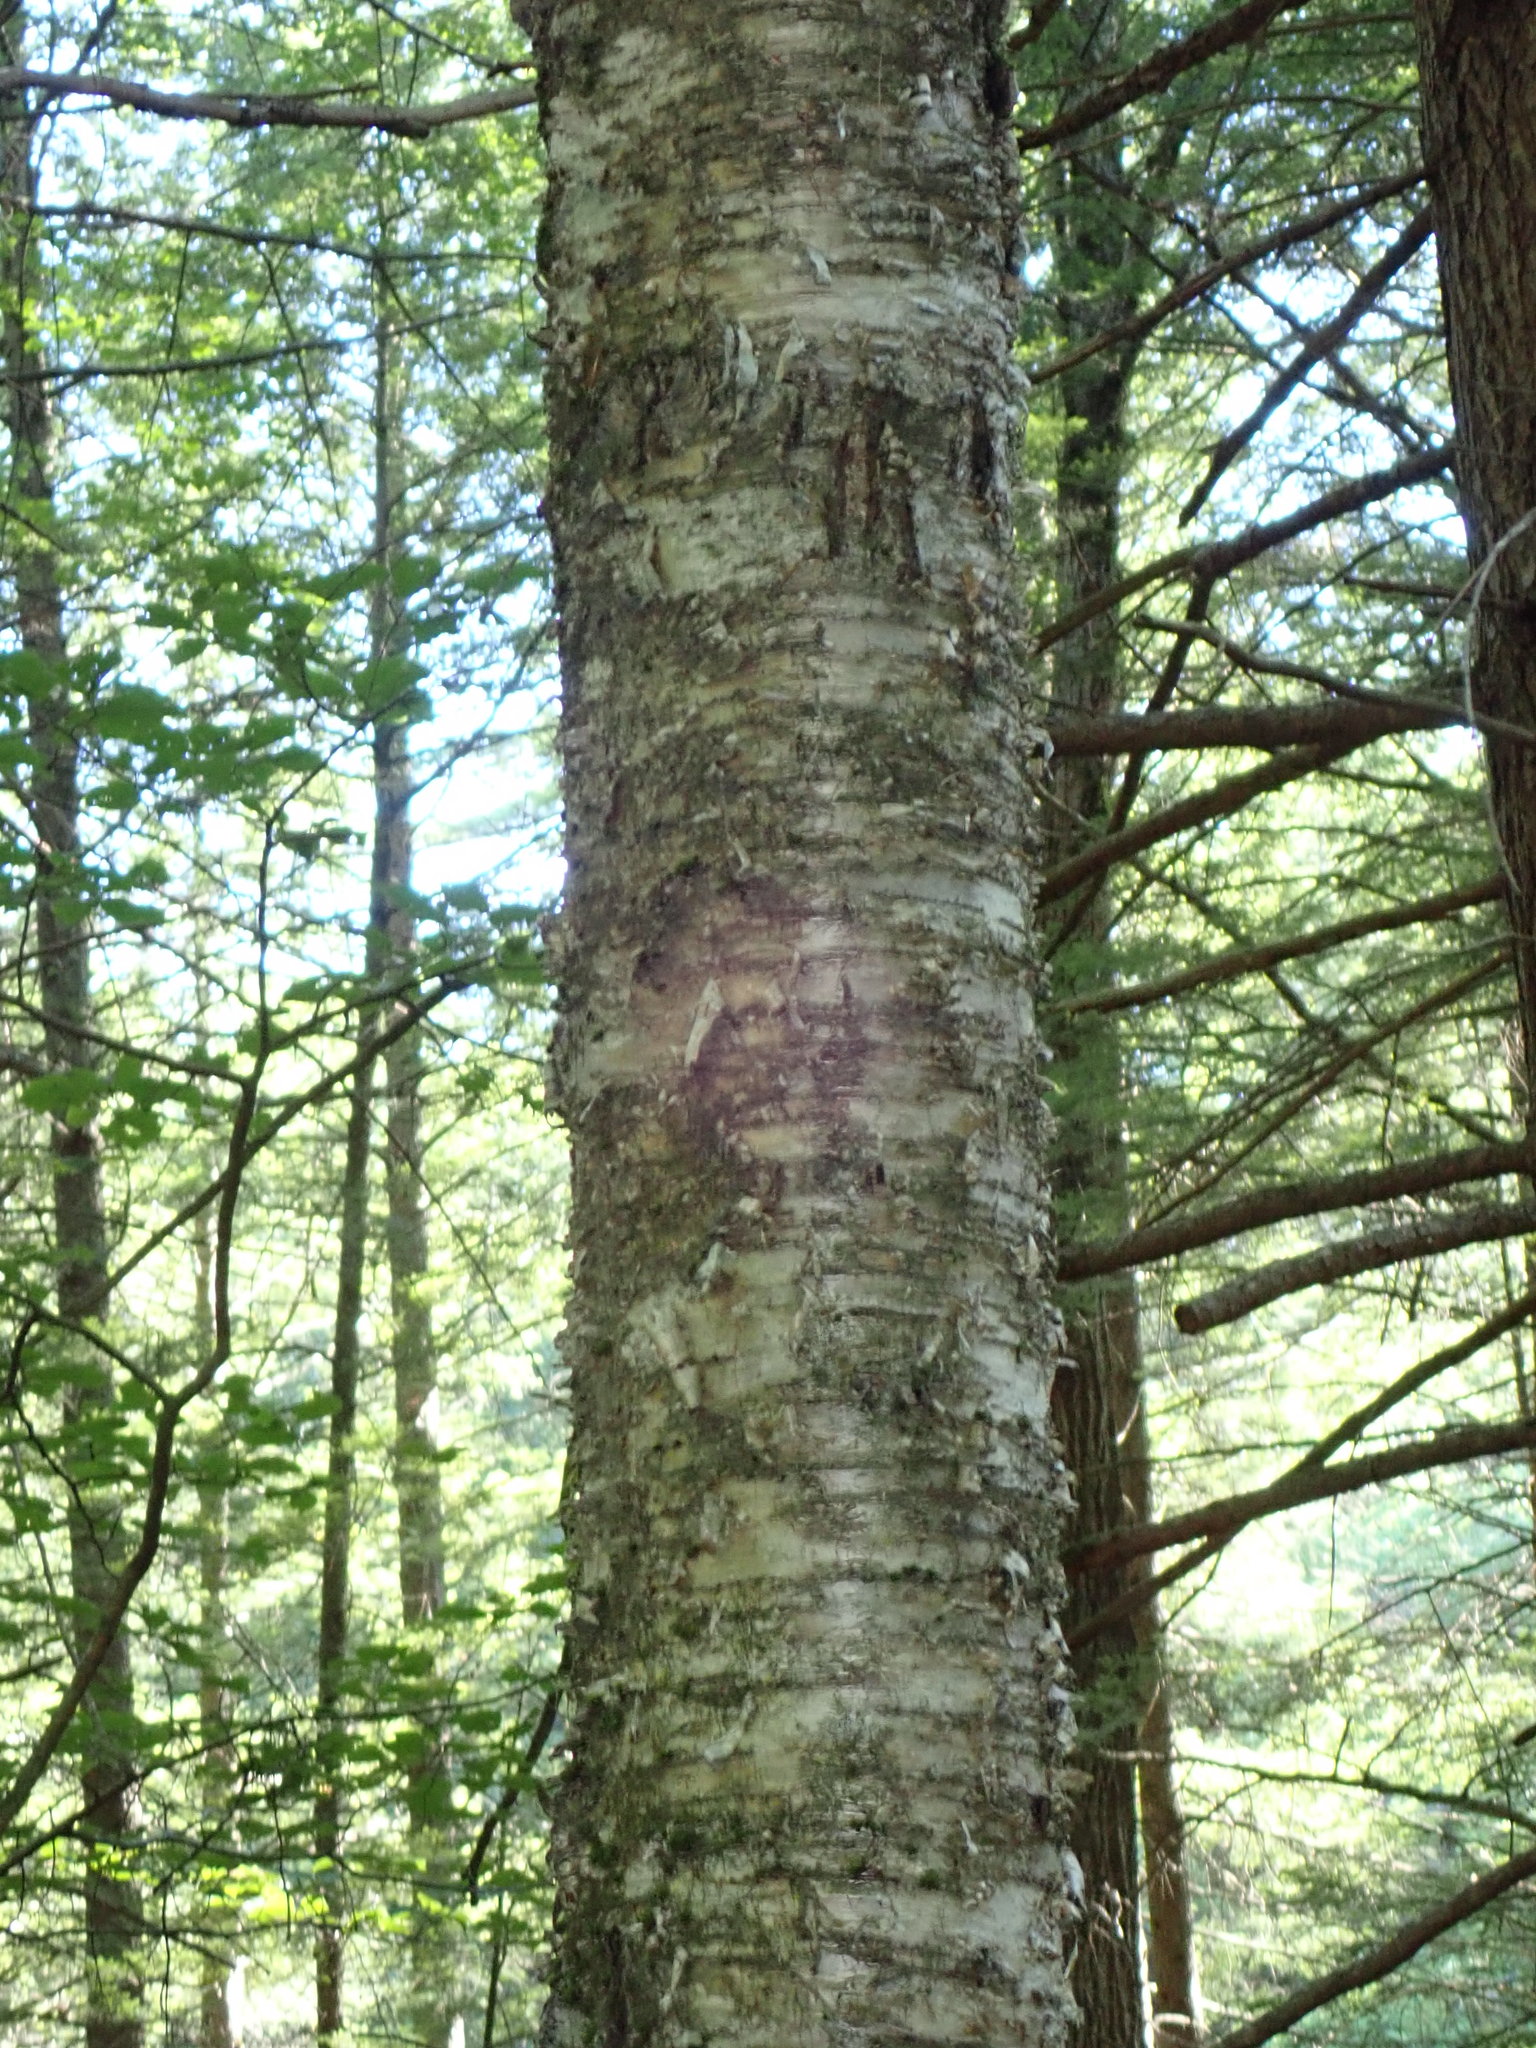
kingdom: Plantae
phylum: Tracheophyta
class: Magnoliopsida
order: Fagales
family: Betulaceae
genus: Betula
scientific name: Betula alleghaniensis
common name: Yellow birch
